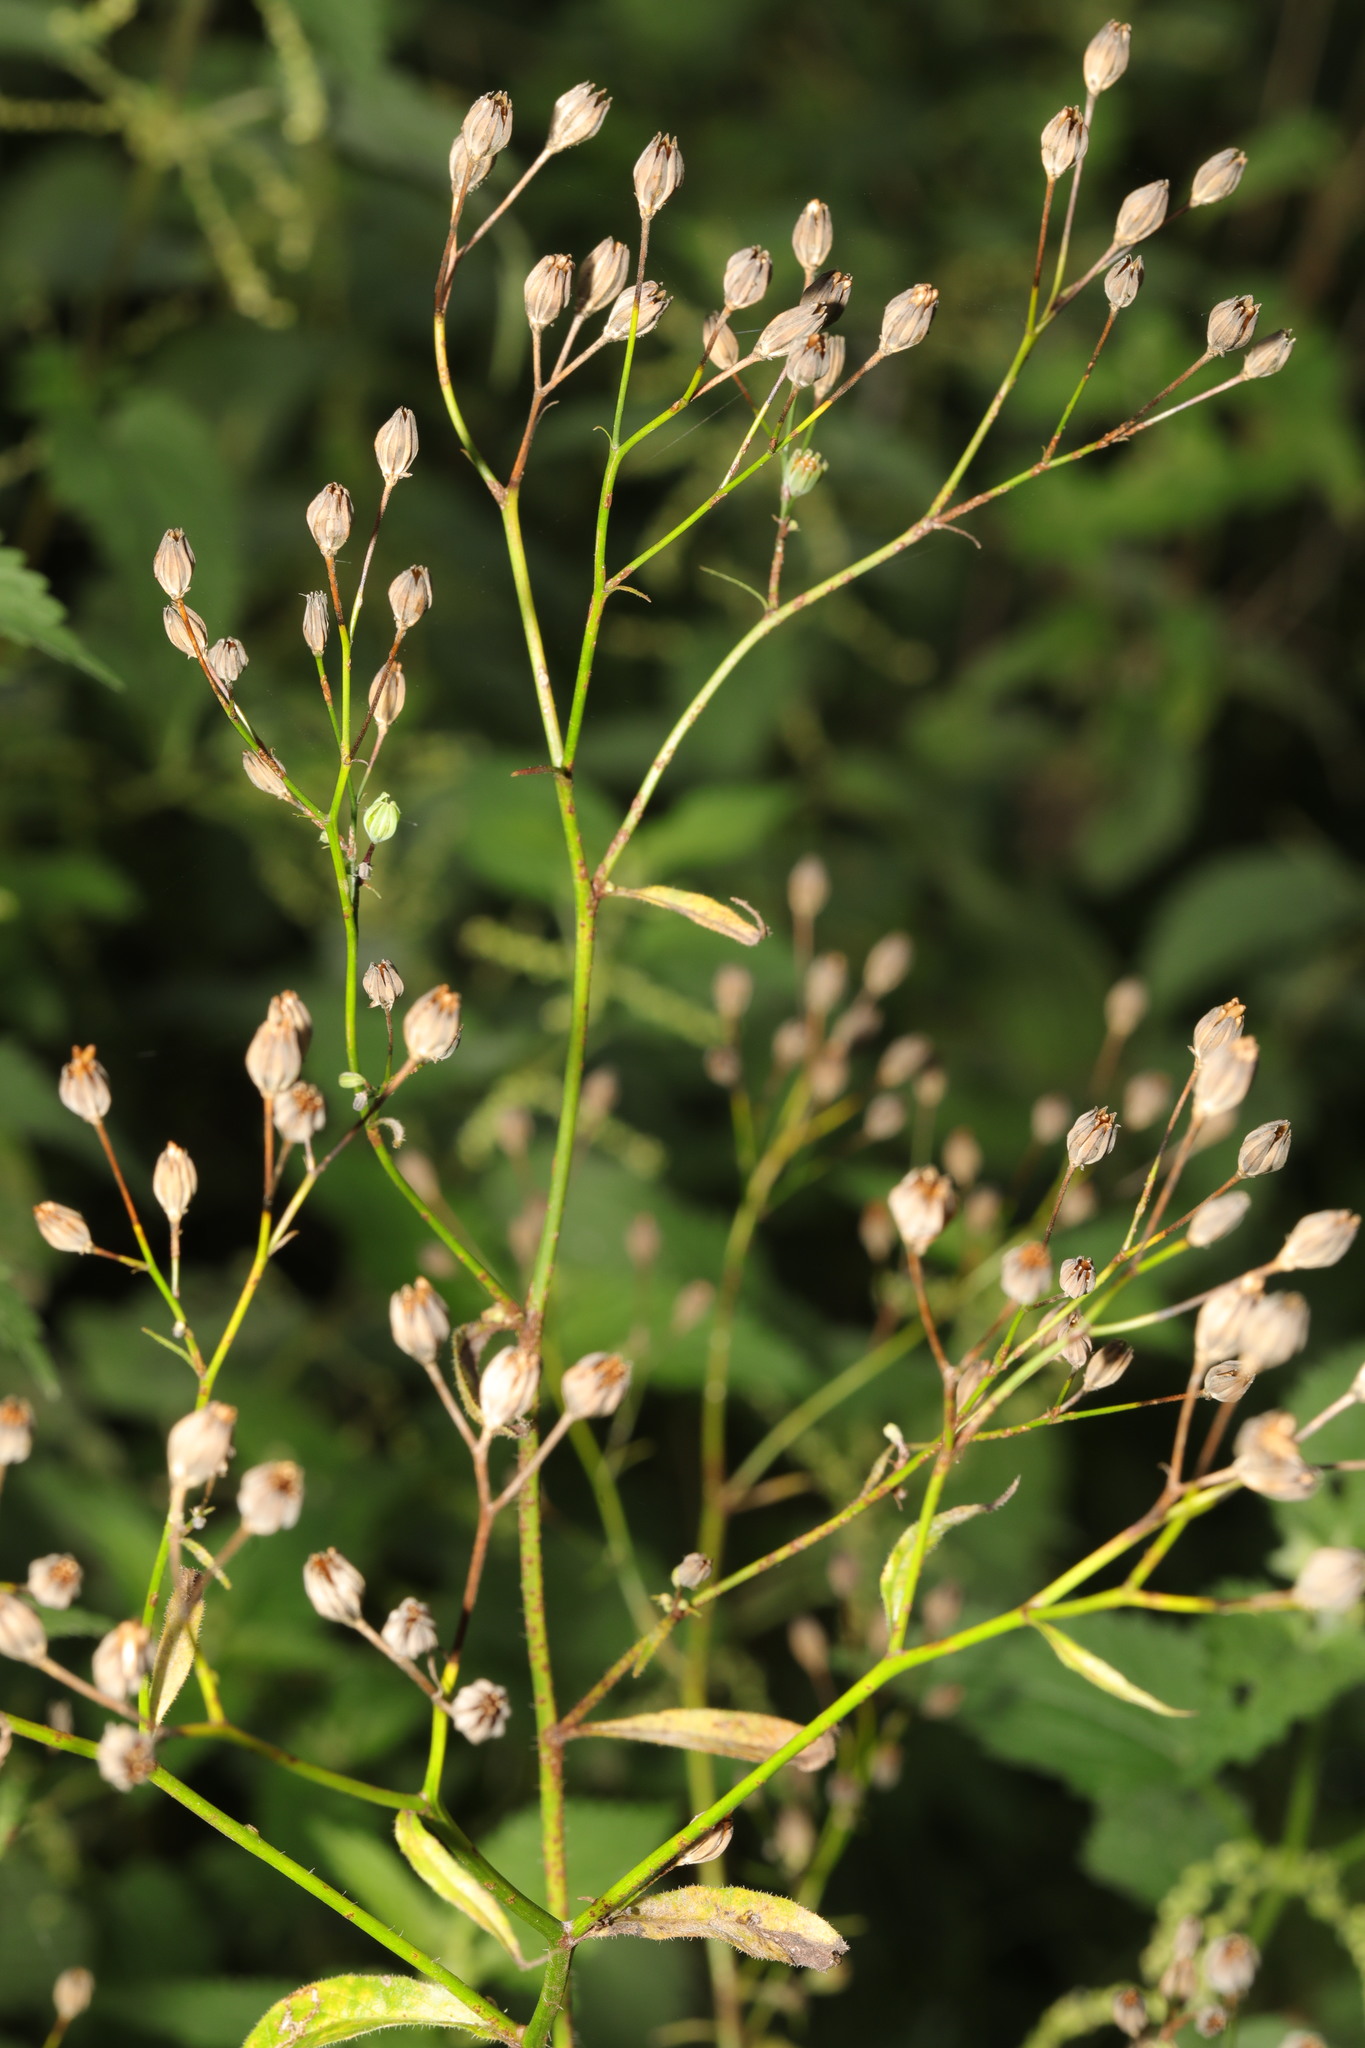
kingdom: Plantae
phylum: Tracheophyta
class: Magnoliopsida
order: Asterales
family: Asteraceae
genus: Lapsana
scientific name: Lapsana communis
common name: Nipplewort
